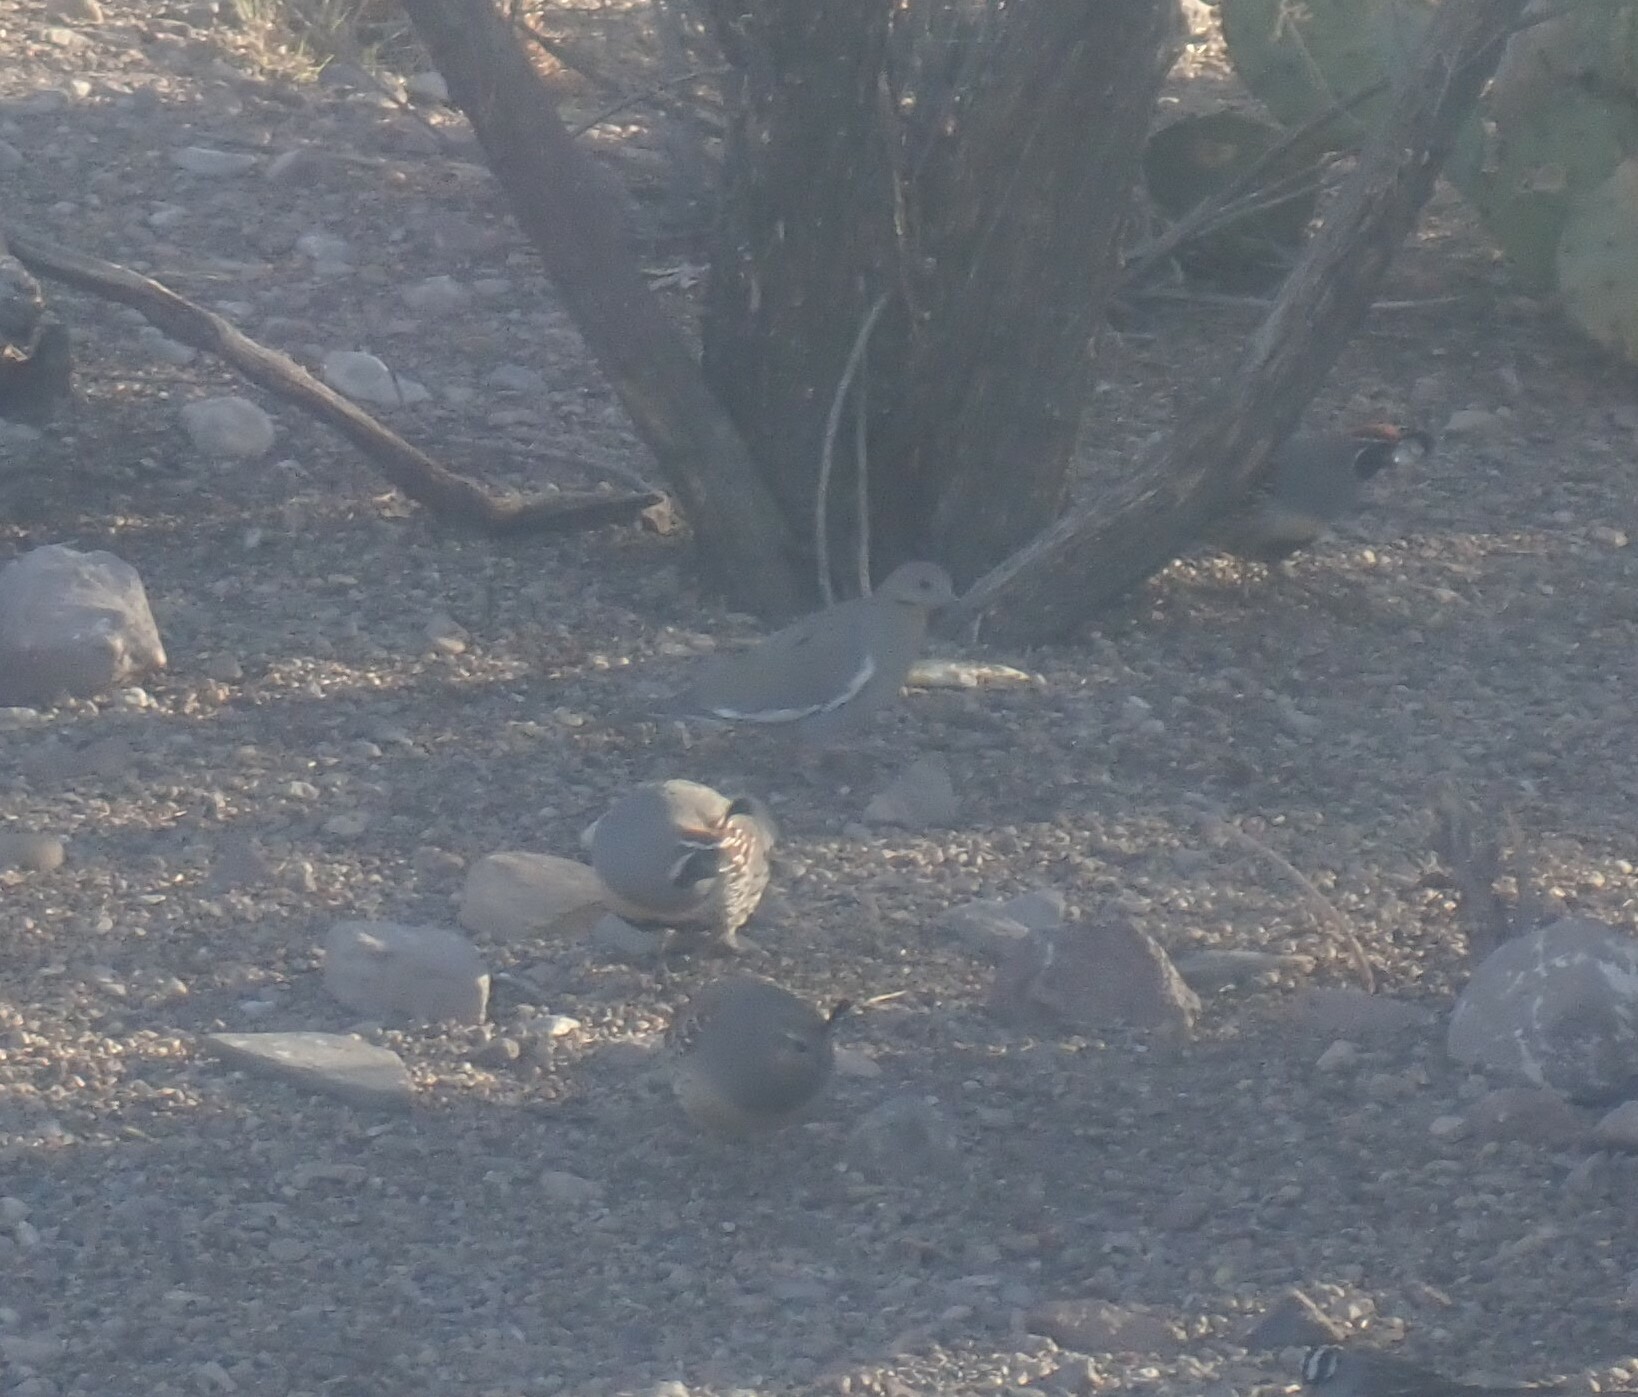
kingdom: Animalia
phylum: Chordata
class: Aves
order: Columbiformes
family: Columbidae
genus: Zenaida
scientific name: Zenaida asiatica
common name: White-winged dove
